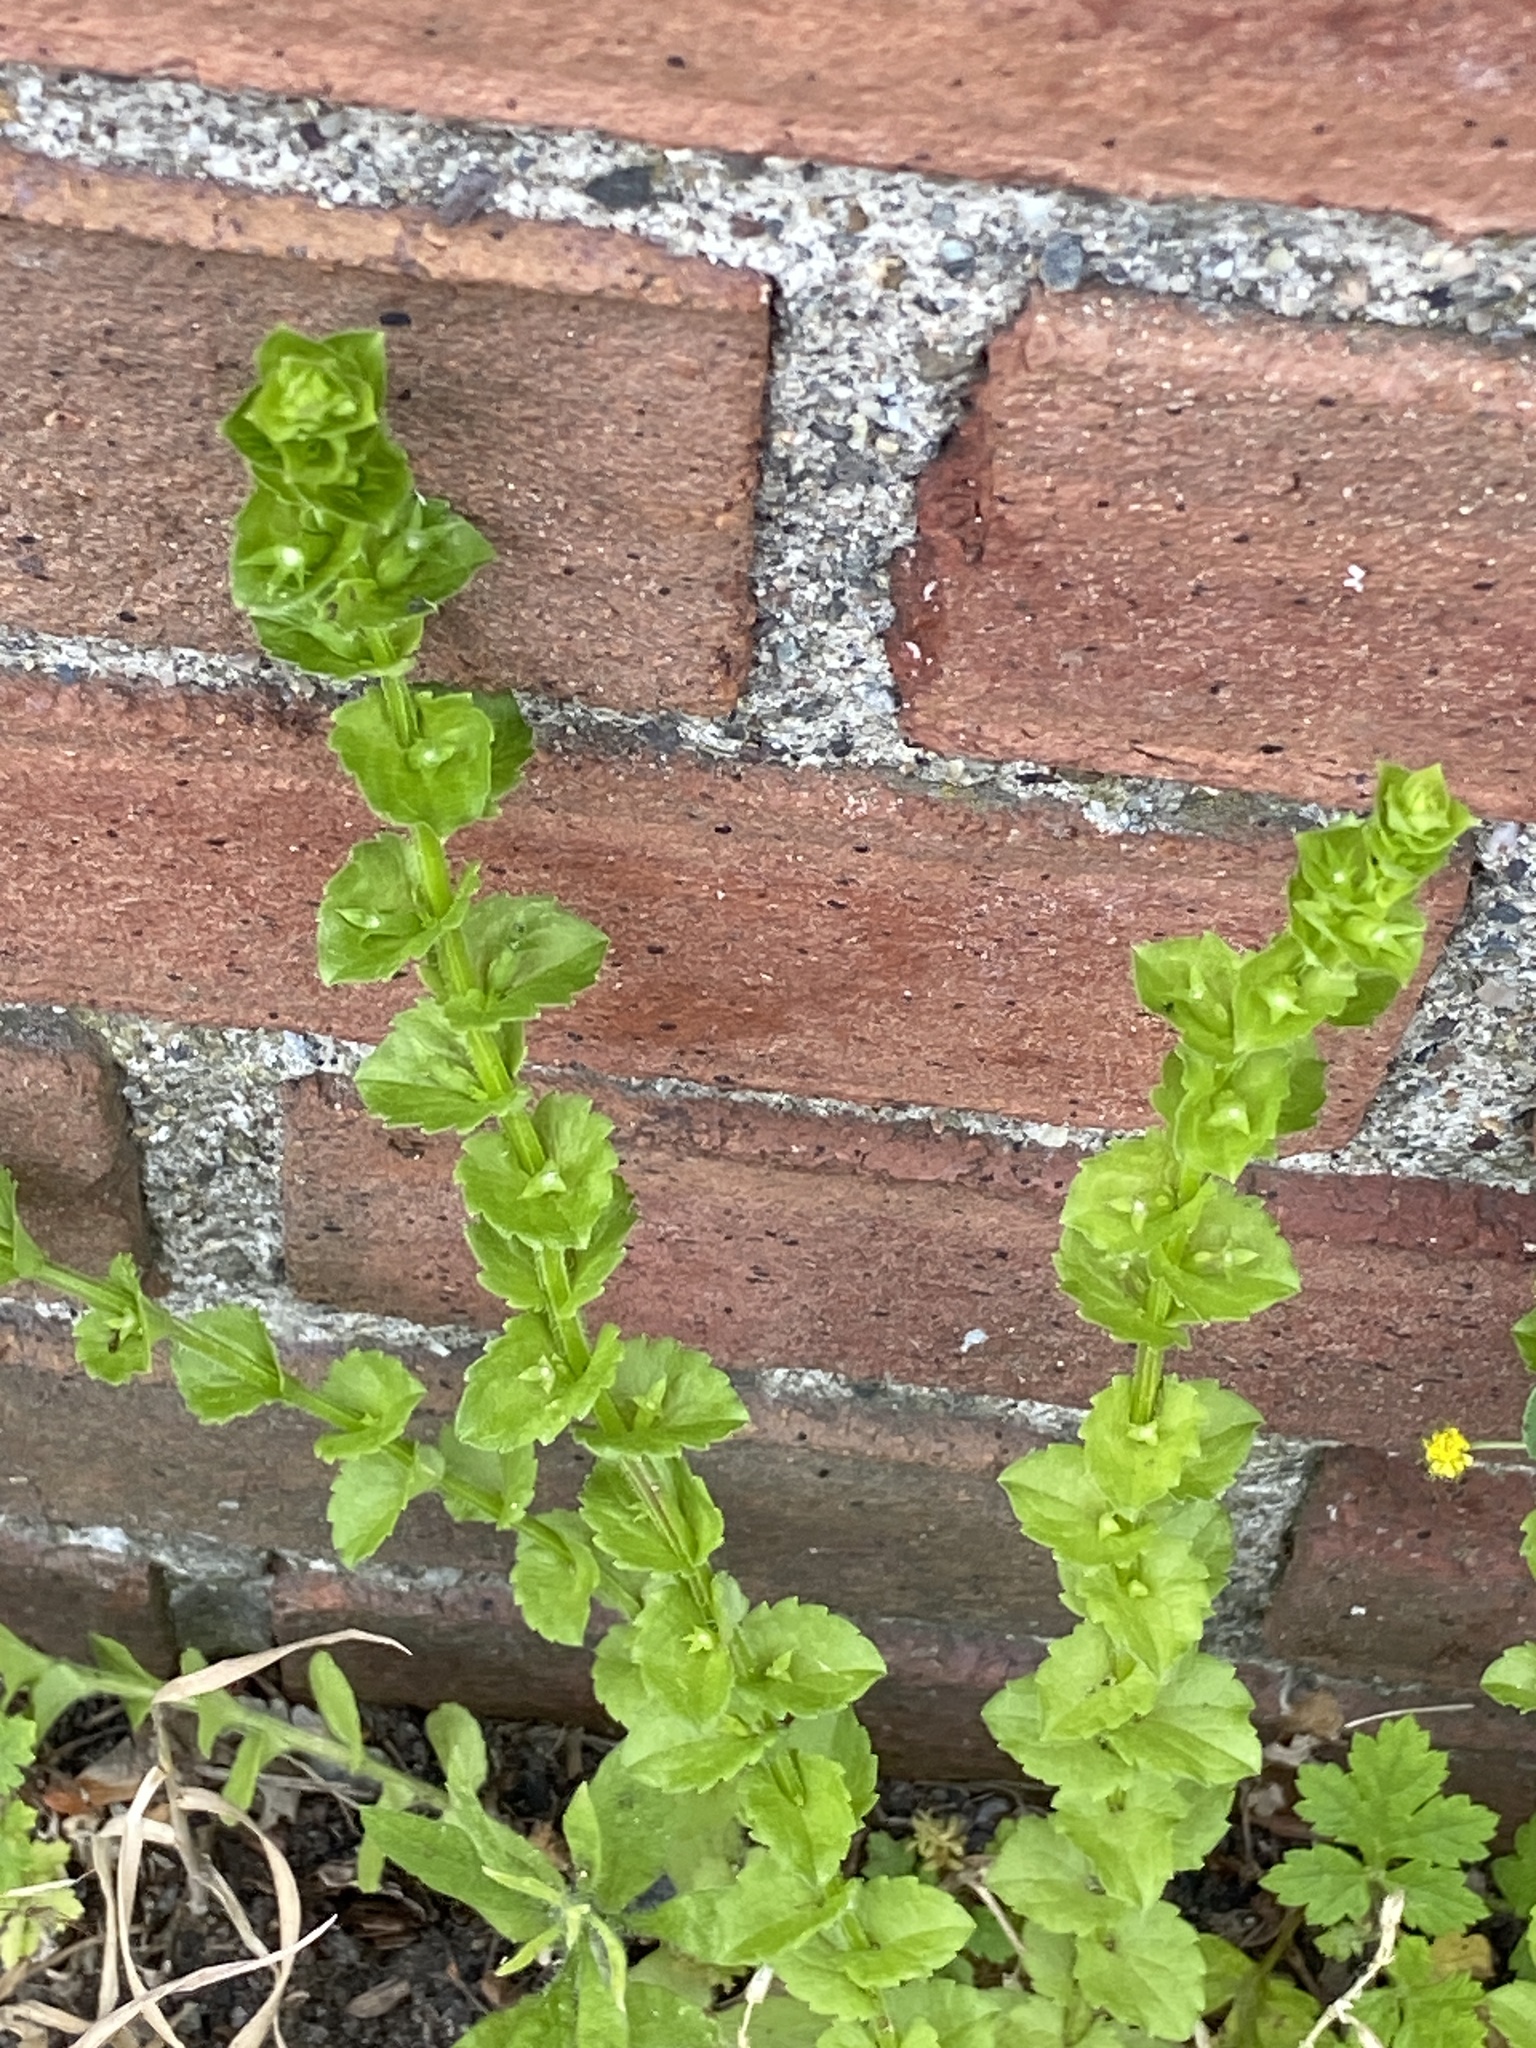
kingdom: Plantae
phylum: Tracheophyta
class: Magnoliopsida
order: Asterales
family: Campanulaceae
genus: Triodanis
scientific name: Triodanis perfoliata
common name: Clasping venus' looking-glass
